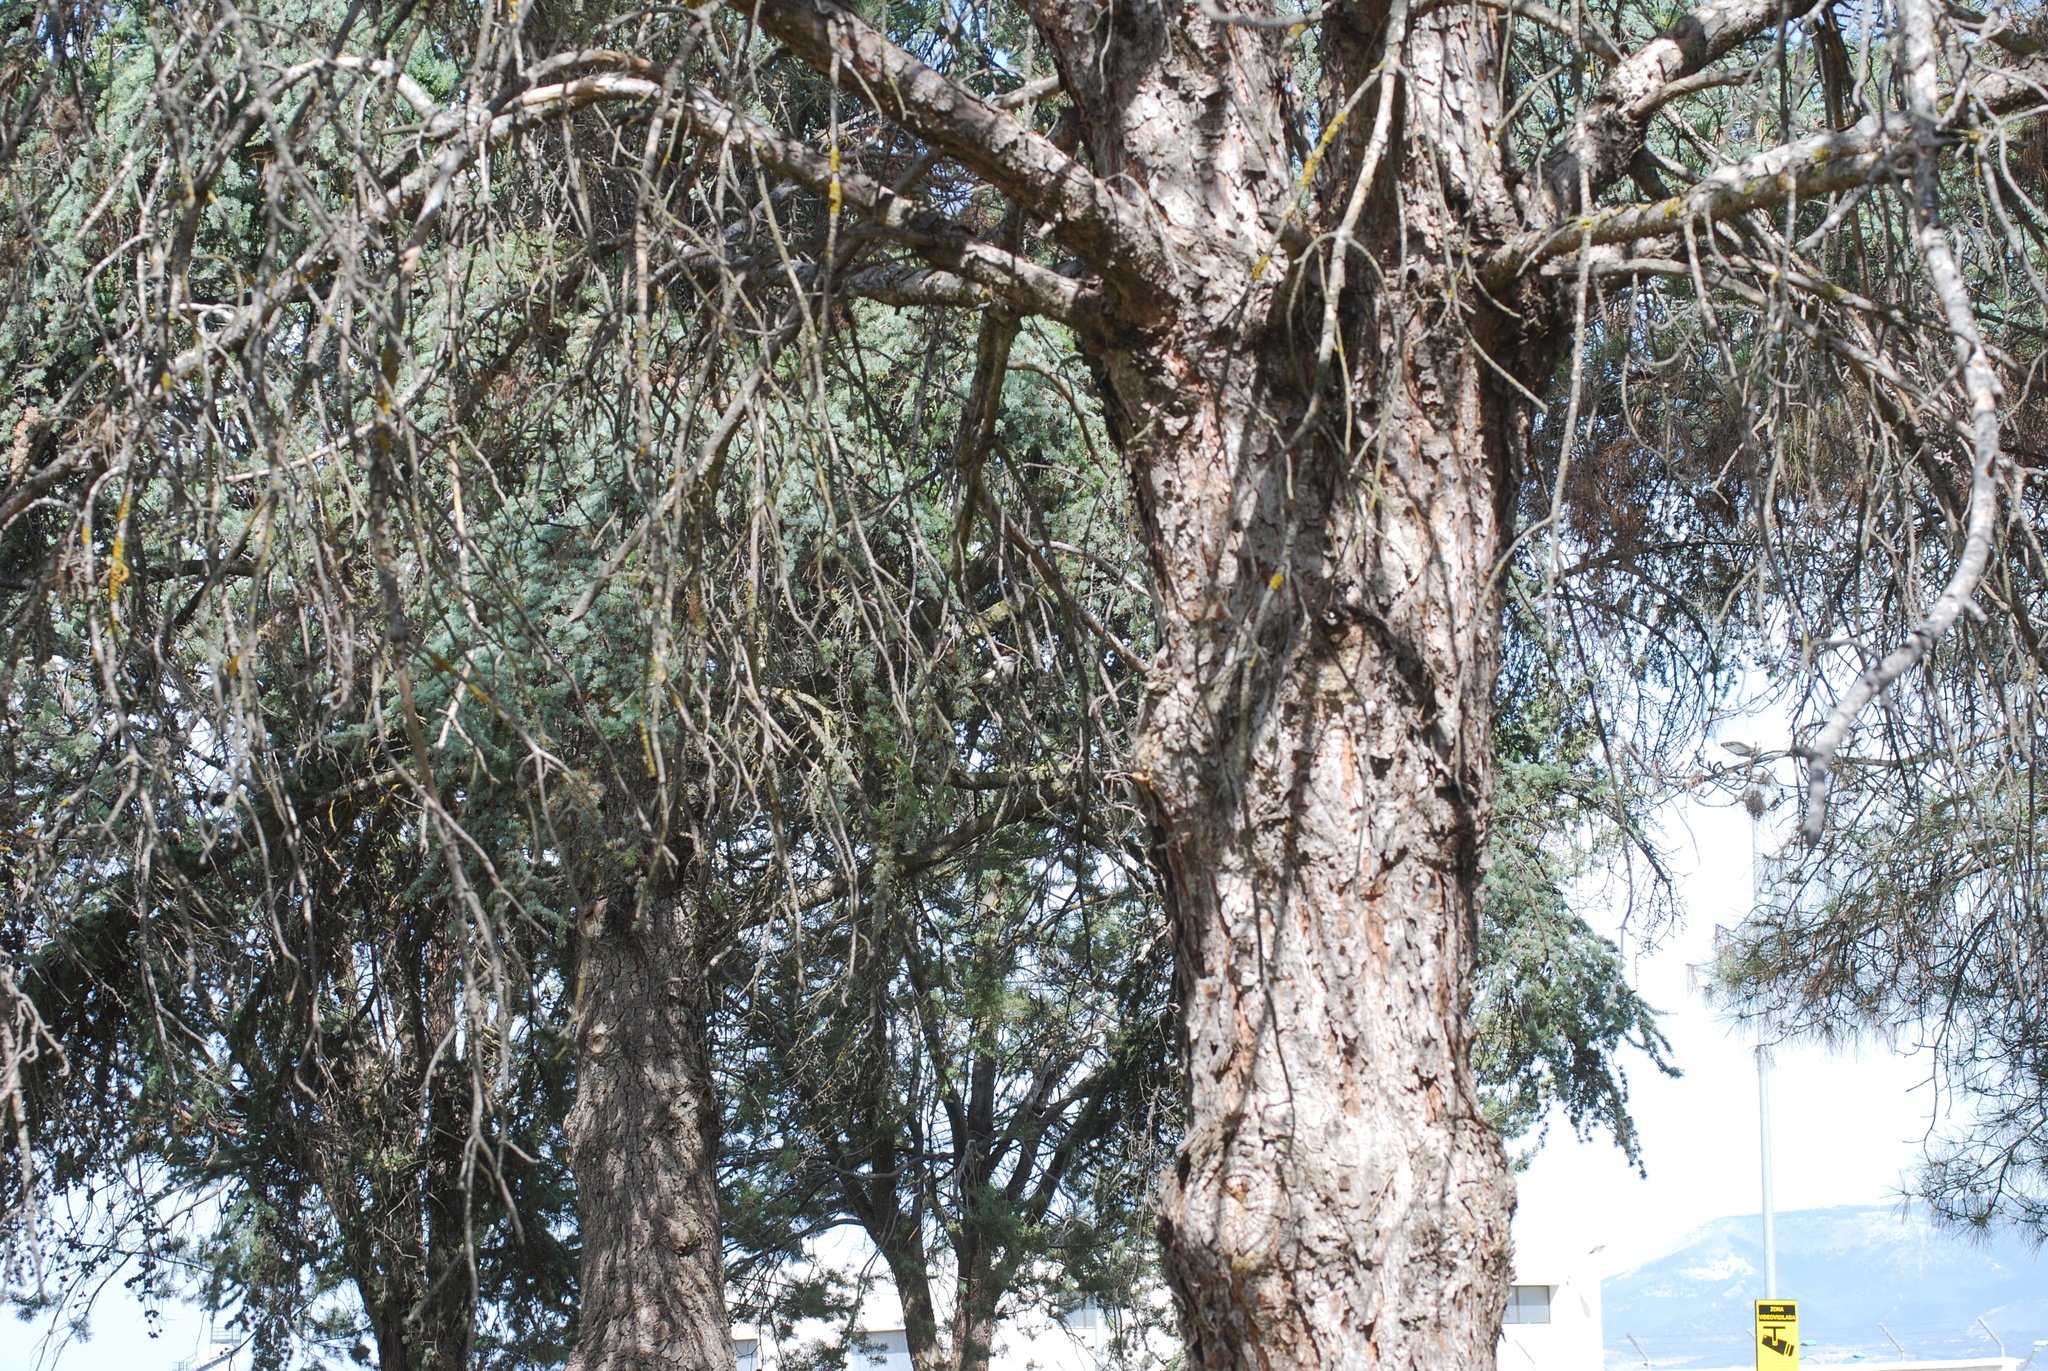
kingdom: Animalia
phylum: Chordata
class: Aves
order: Passeriformes
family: Laniidae
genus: Lanius
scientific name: Lanius senator
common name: Woodchat shrike
